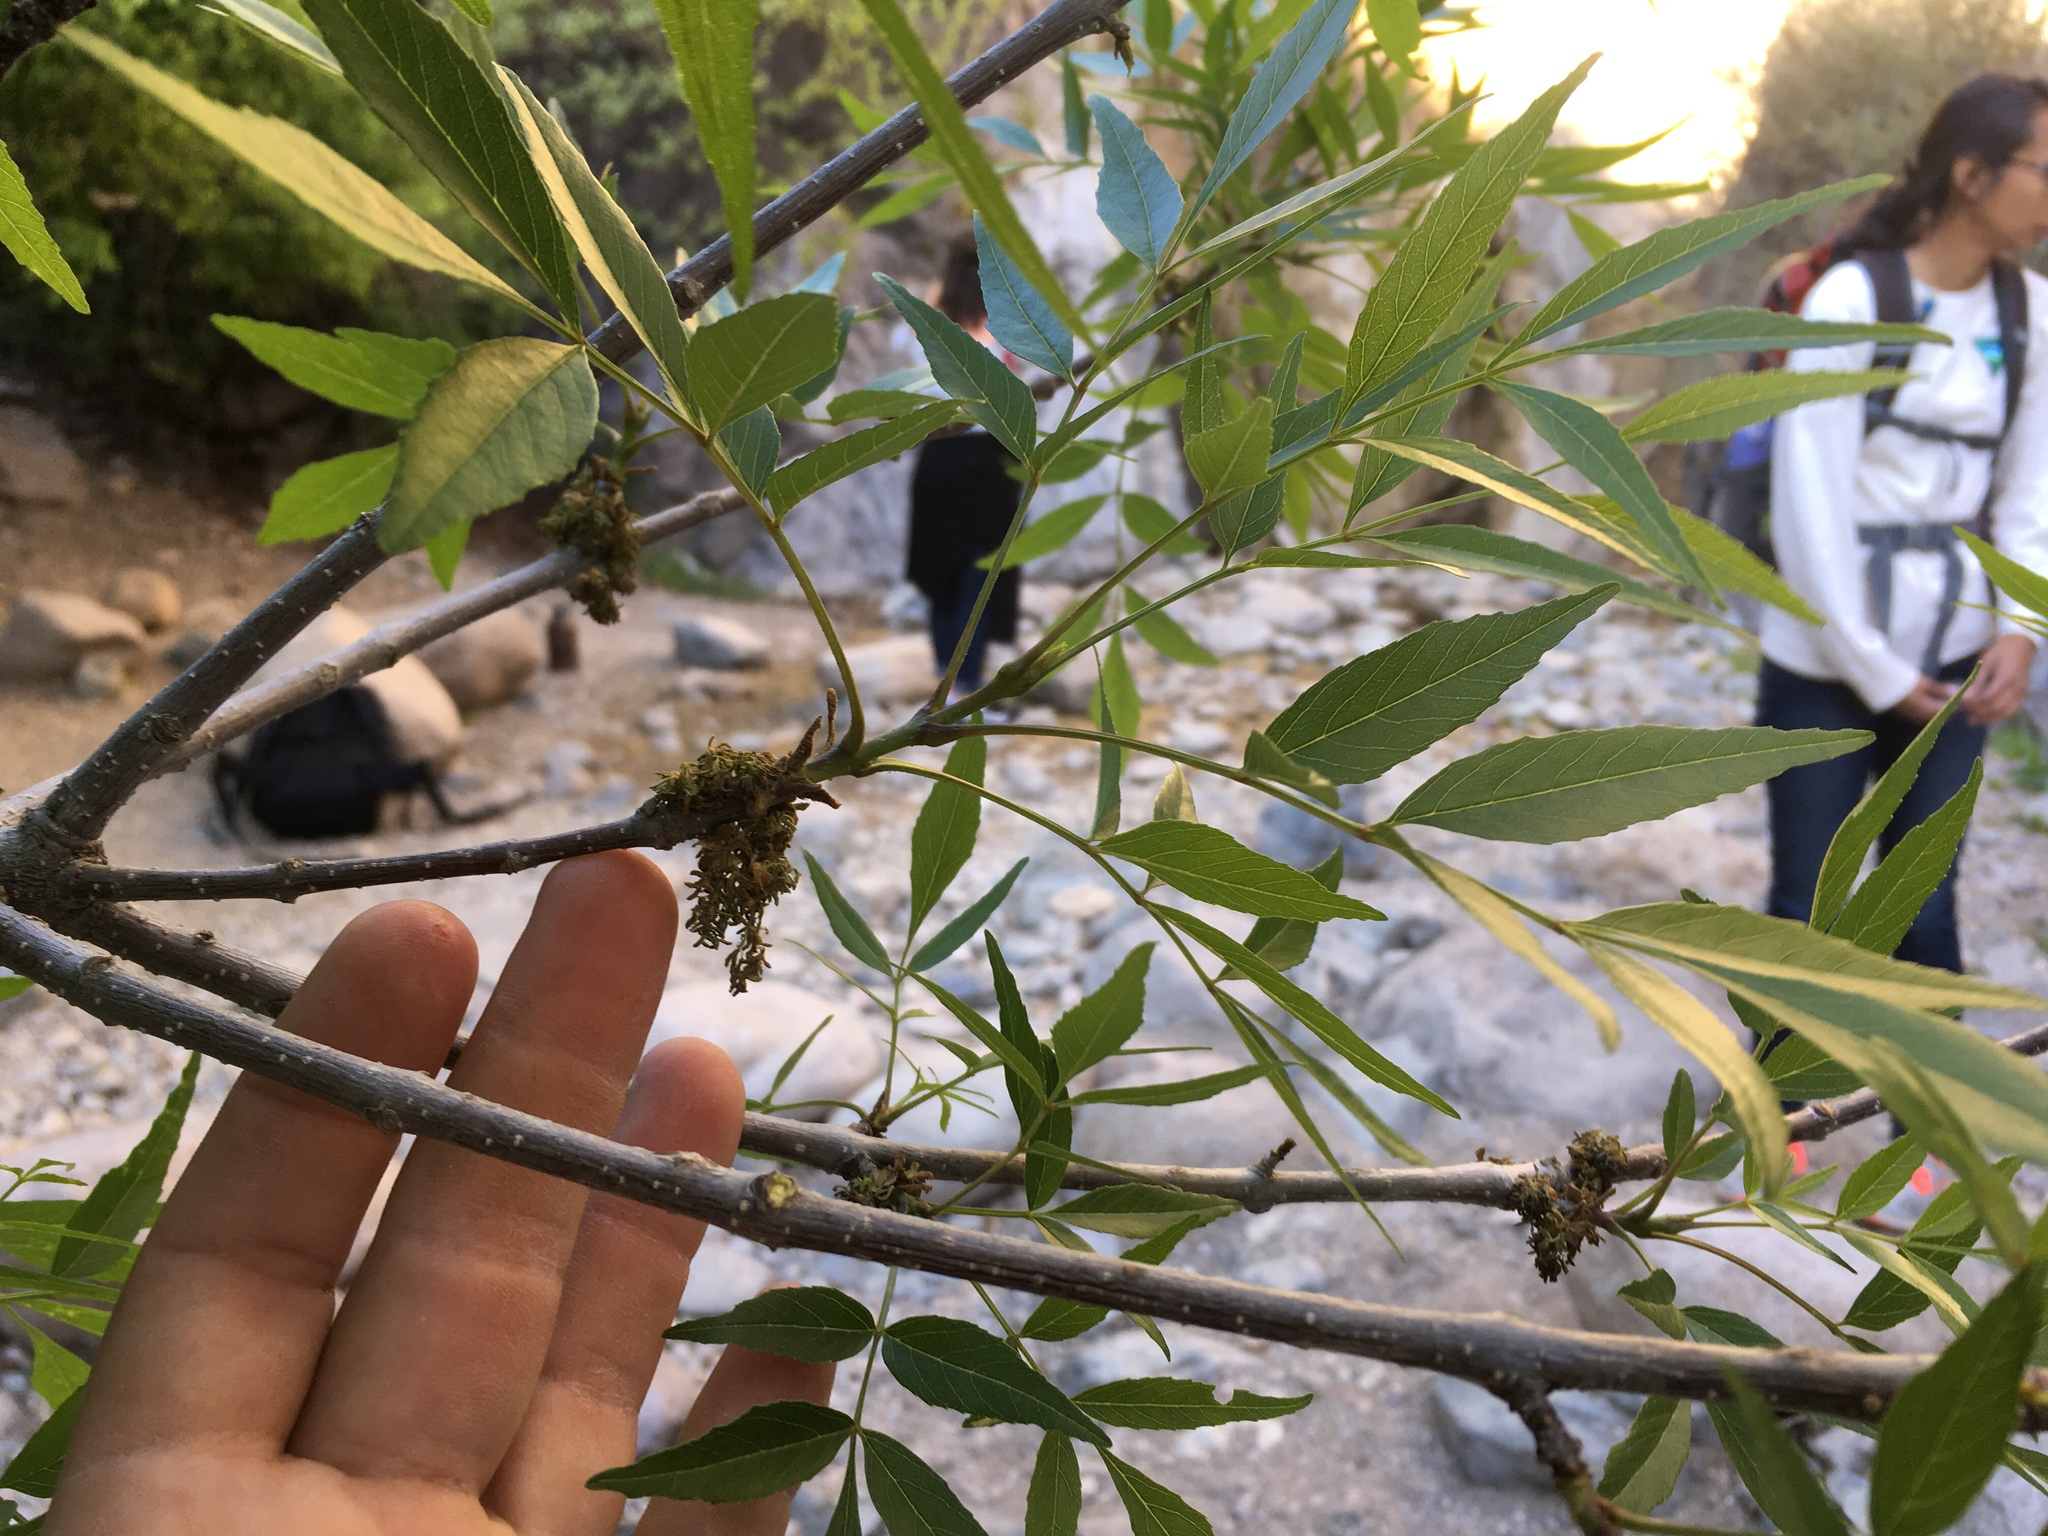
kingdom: Plantae
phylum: Tracheophyta
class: Magnoliopsida
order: Lamiales
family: Oleaceae
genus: Fraxinus
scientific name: Fraxinus velutina
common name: Arizon ash
